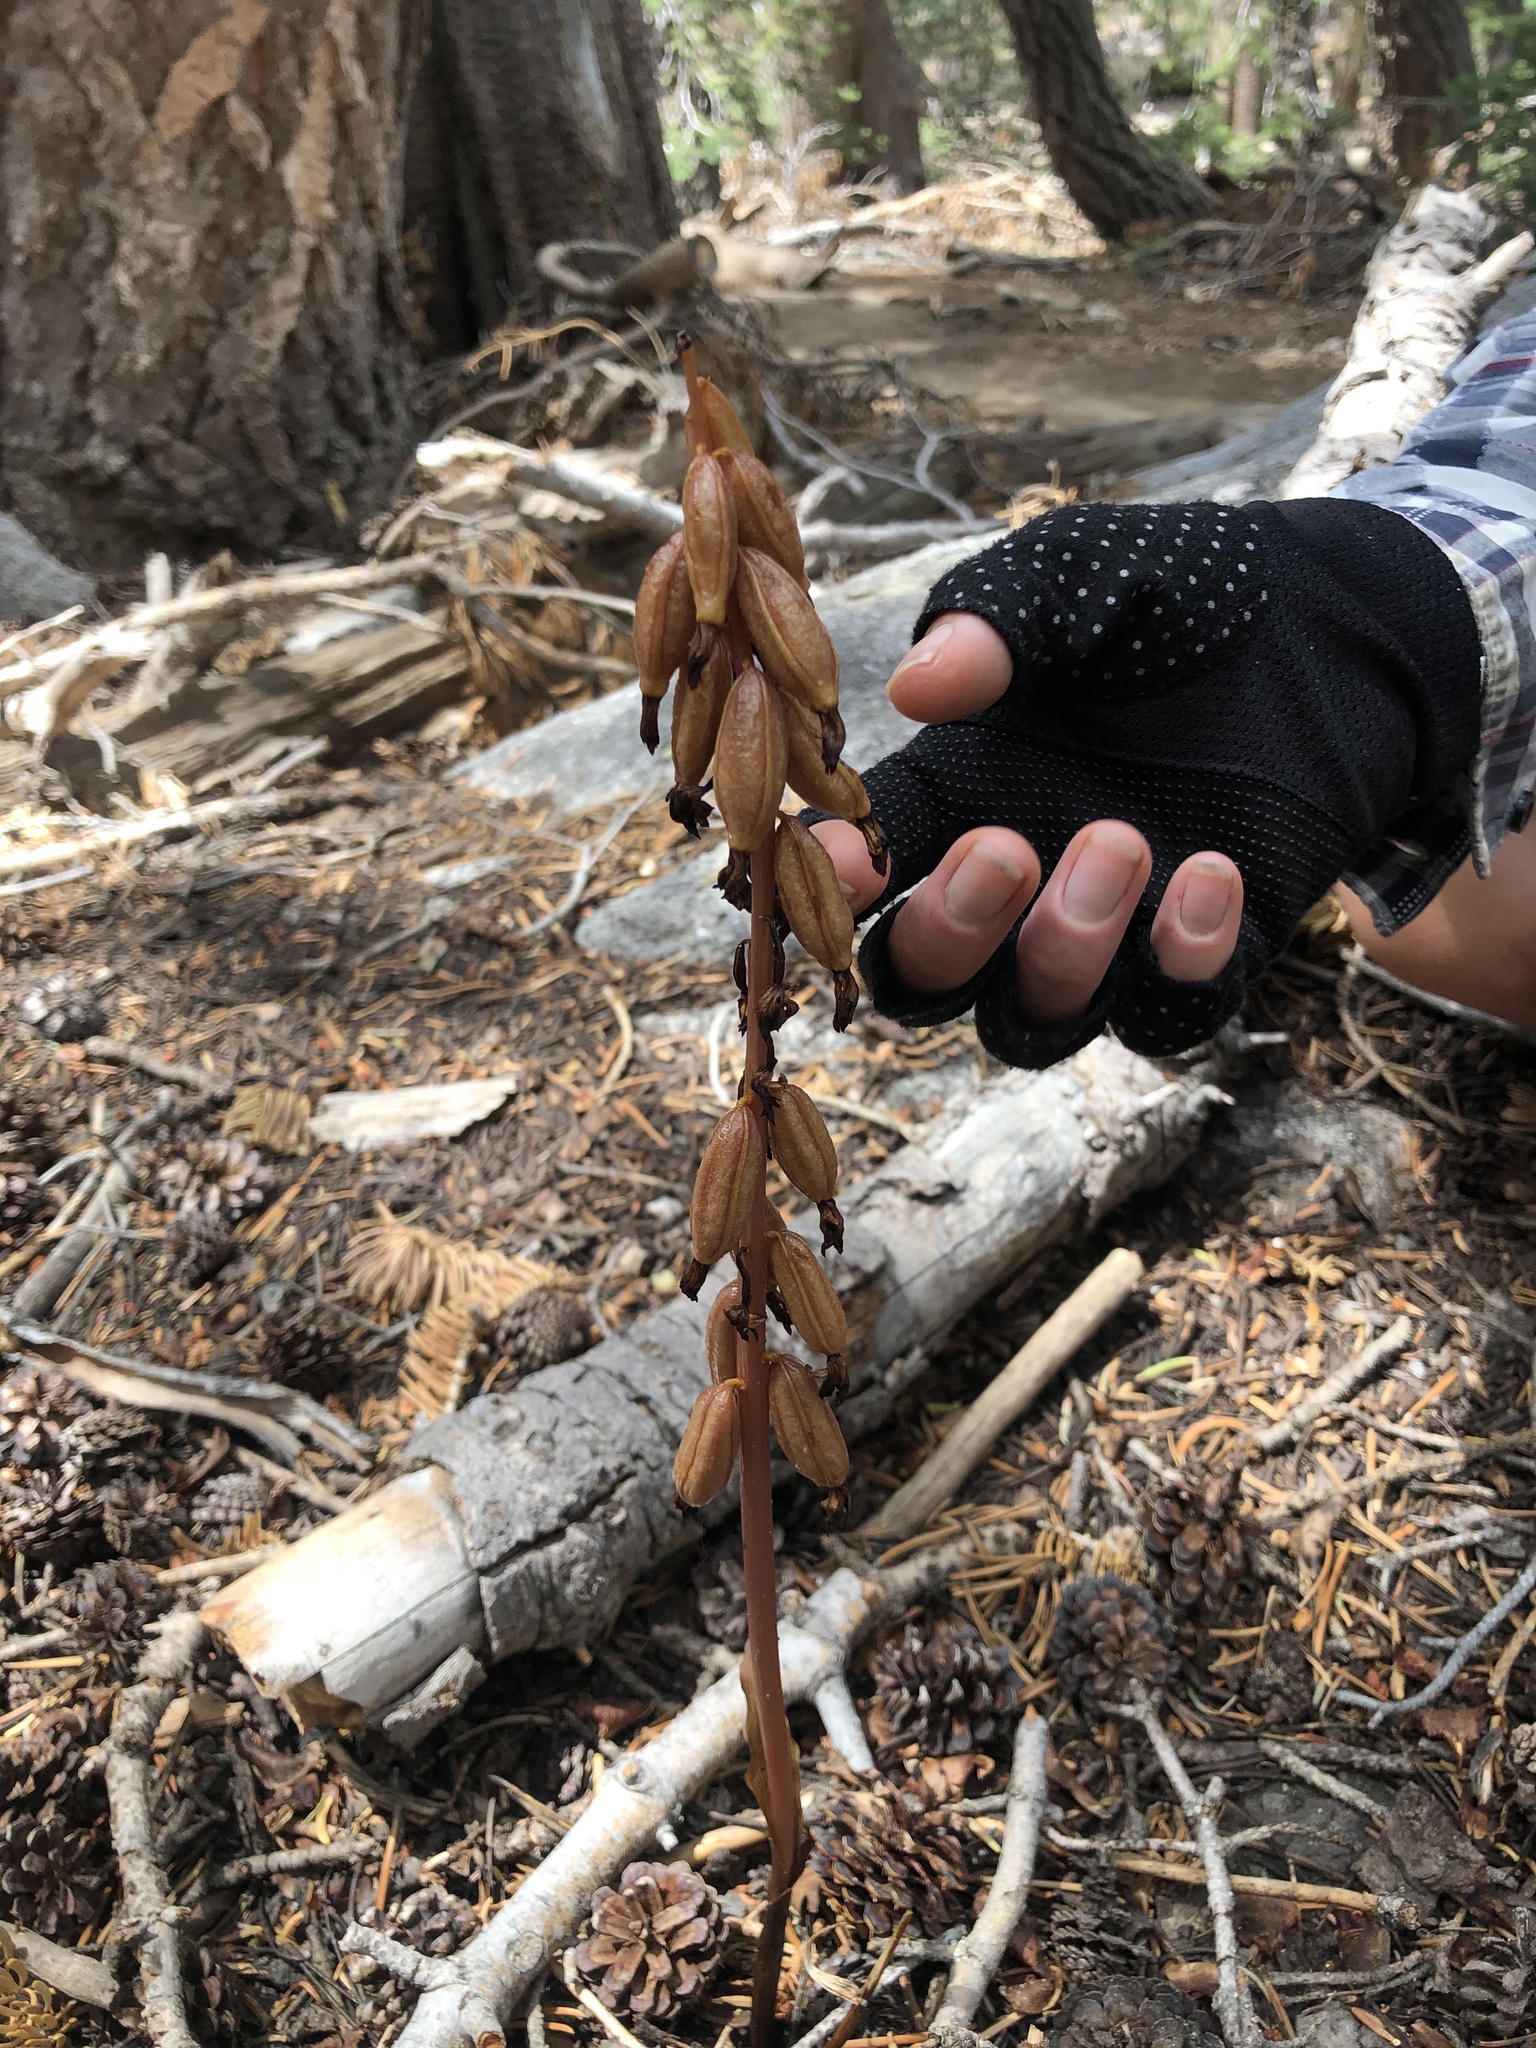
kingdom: Plantae
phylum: Tracheophyta
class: Liliopsida
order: Asparagales
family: Orchidaceae
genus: Corallorhiza
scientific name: Corallorhiza maculata
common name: Spotted coralroot
